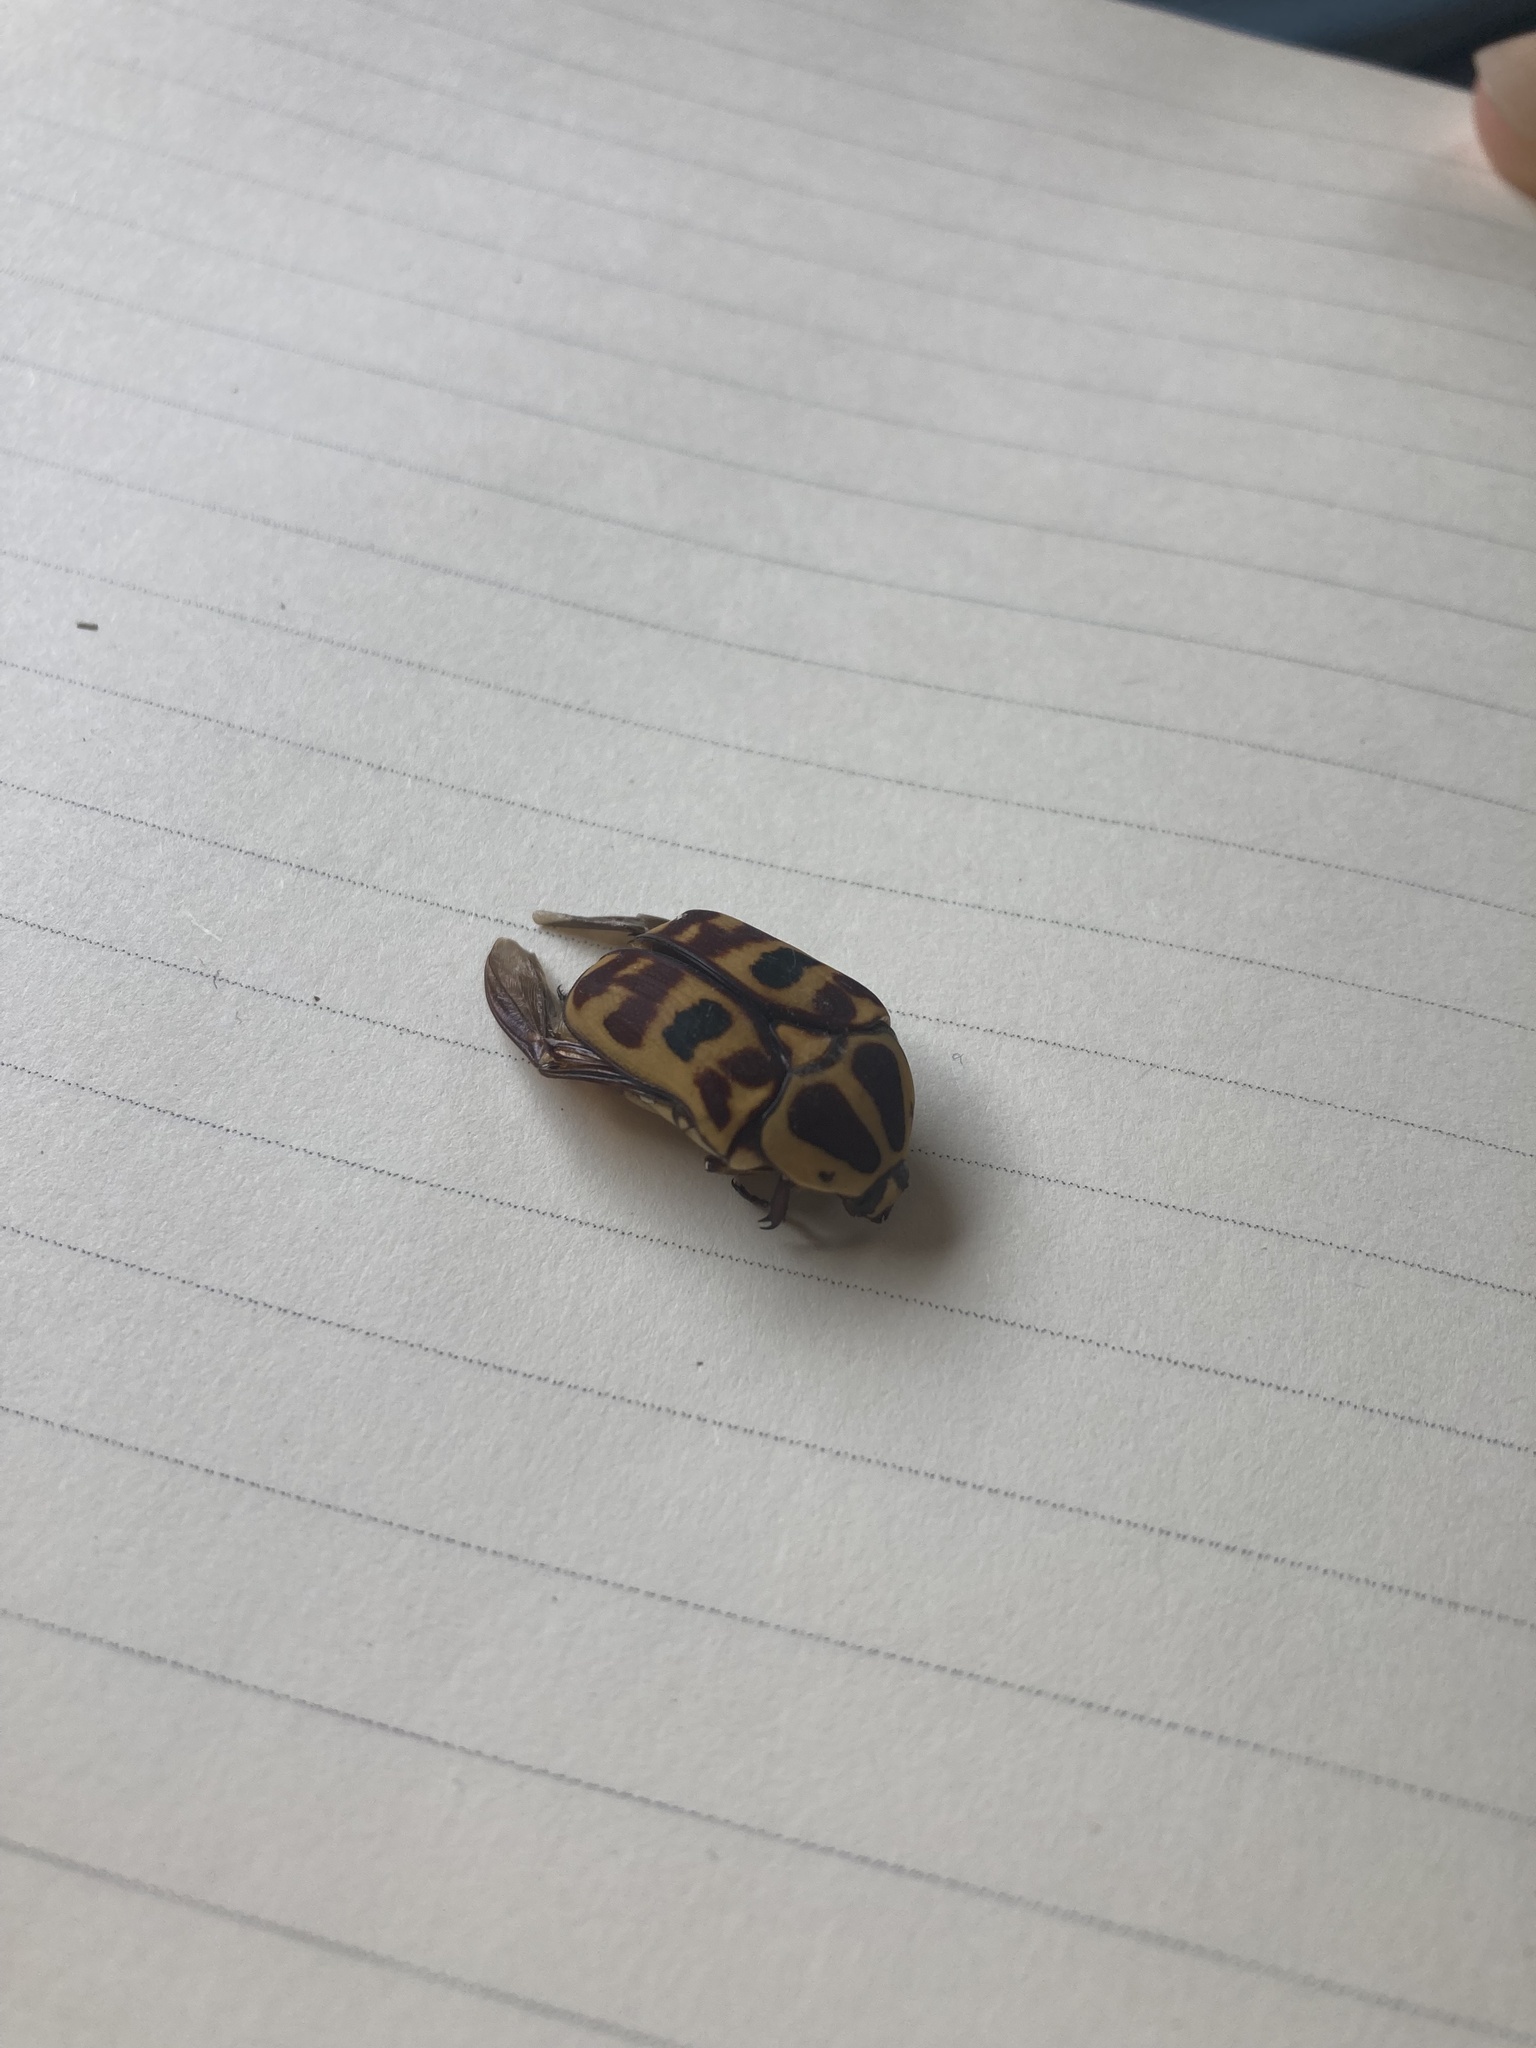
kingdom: Animalia
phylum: Arthropoda
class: Insecta
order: Coleoptera
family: Scarabaeidae
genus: Pachnoda
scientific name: Pachnoda cordata
